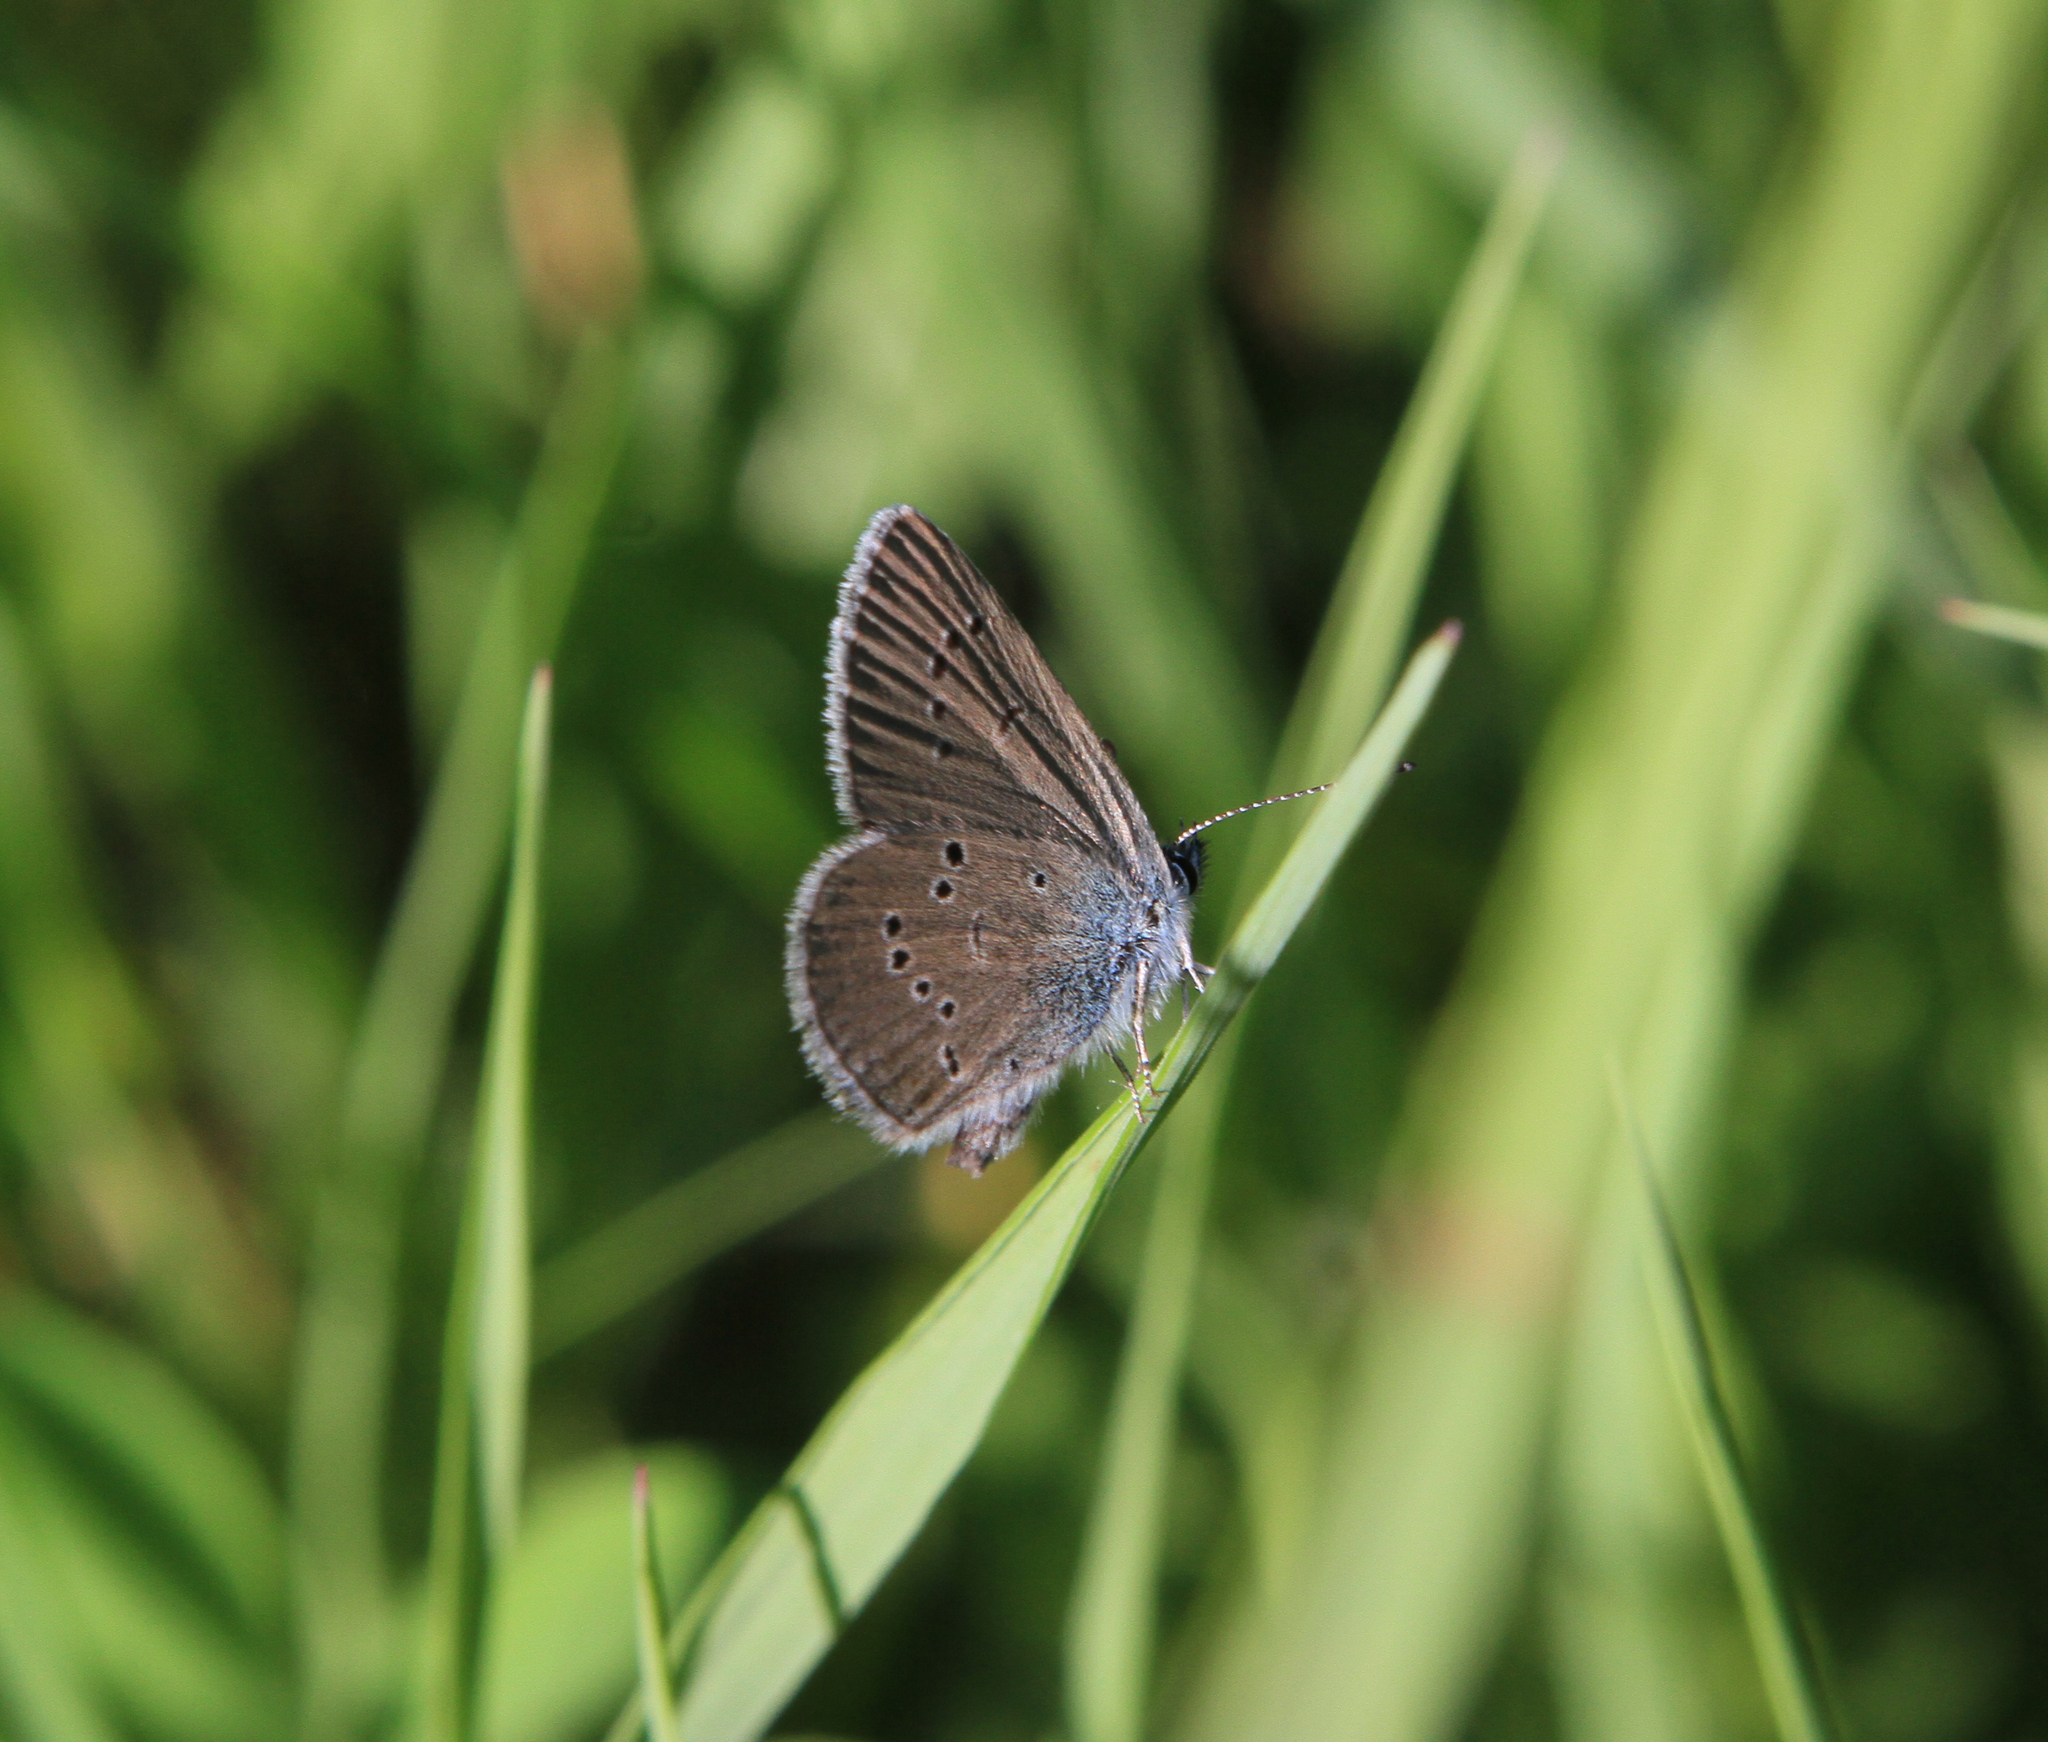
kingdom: Animalia
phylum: Arthropoda
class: Insecta
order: Lepidoptera
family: Lycaenidae
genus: Cyaniris
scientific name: Cyaniris semiargus
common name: Mazarine blue
